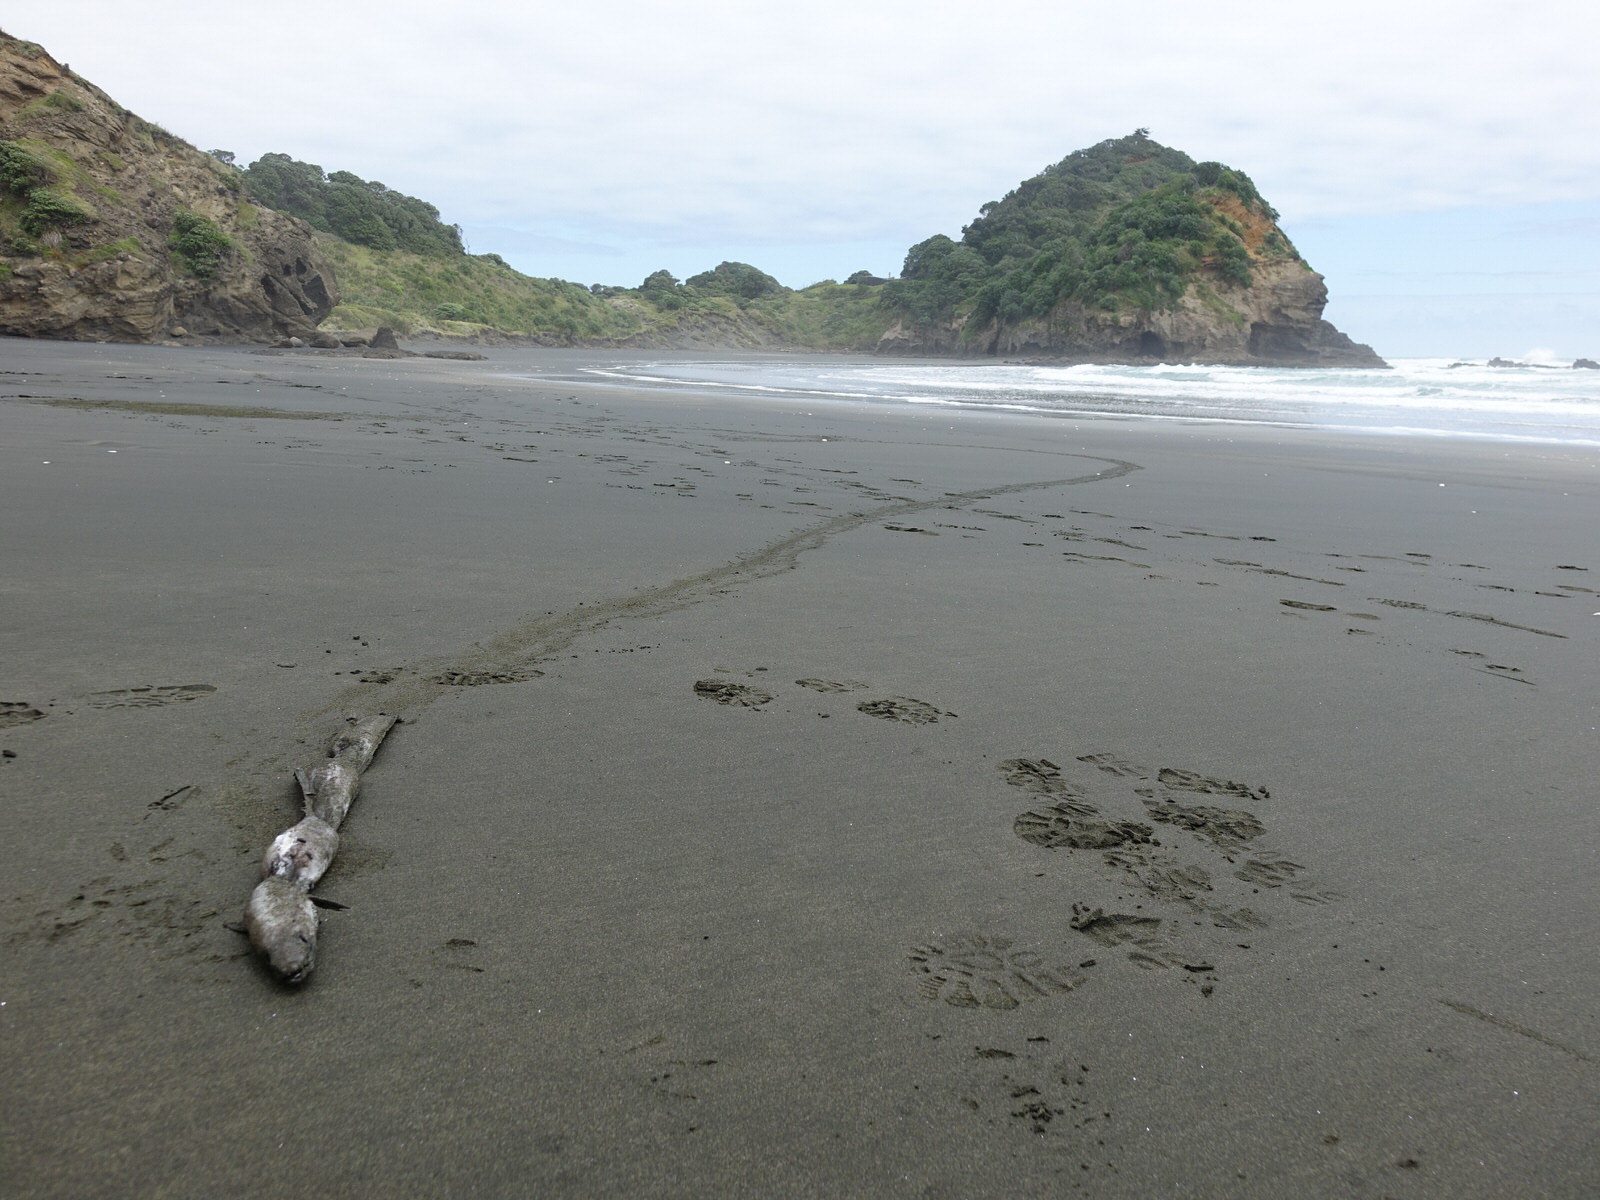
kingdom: Animalia
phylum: Chordata
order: Anguilliformes
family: Congridae
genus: Conger
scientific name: Conger
